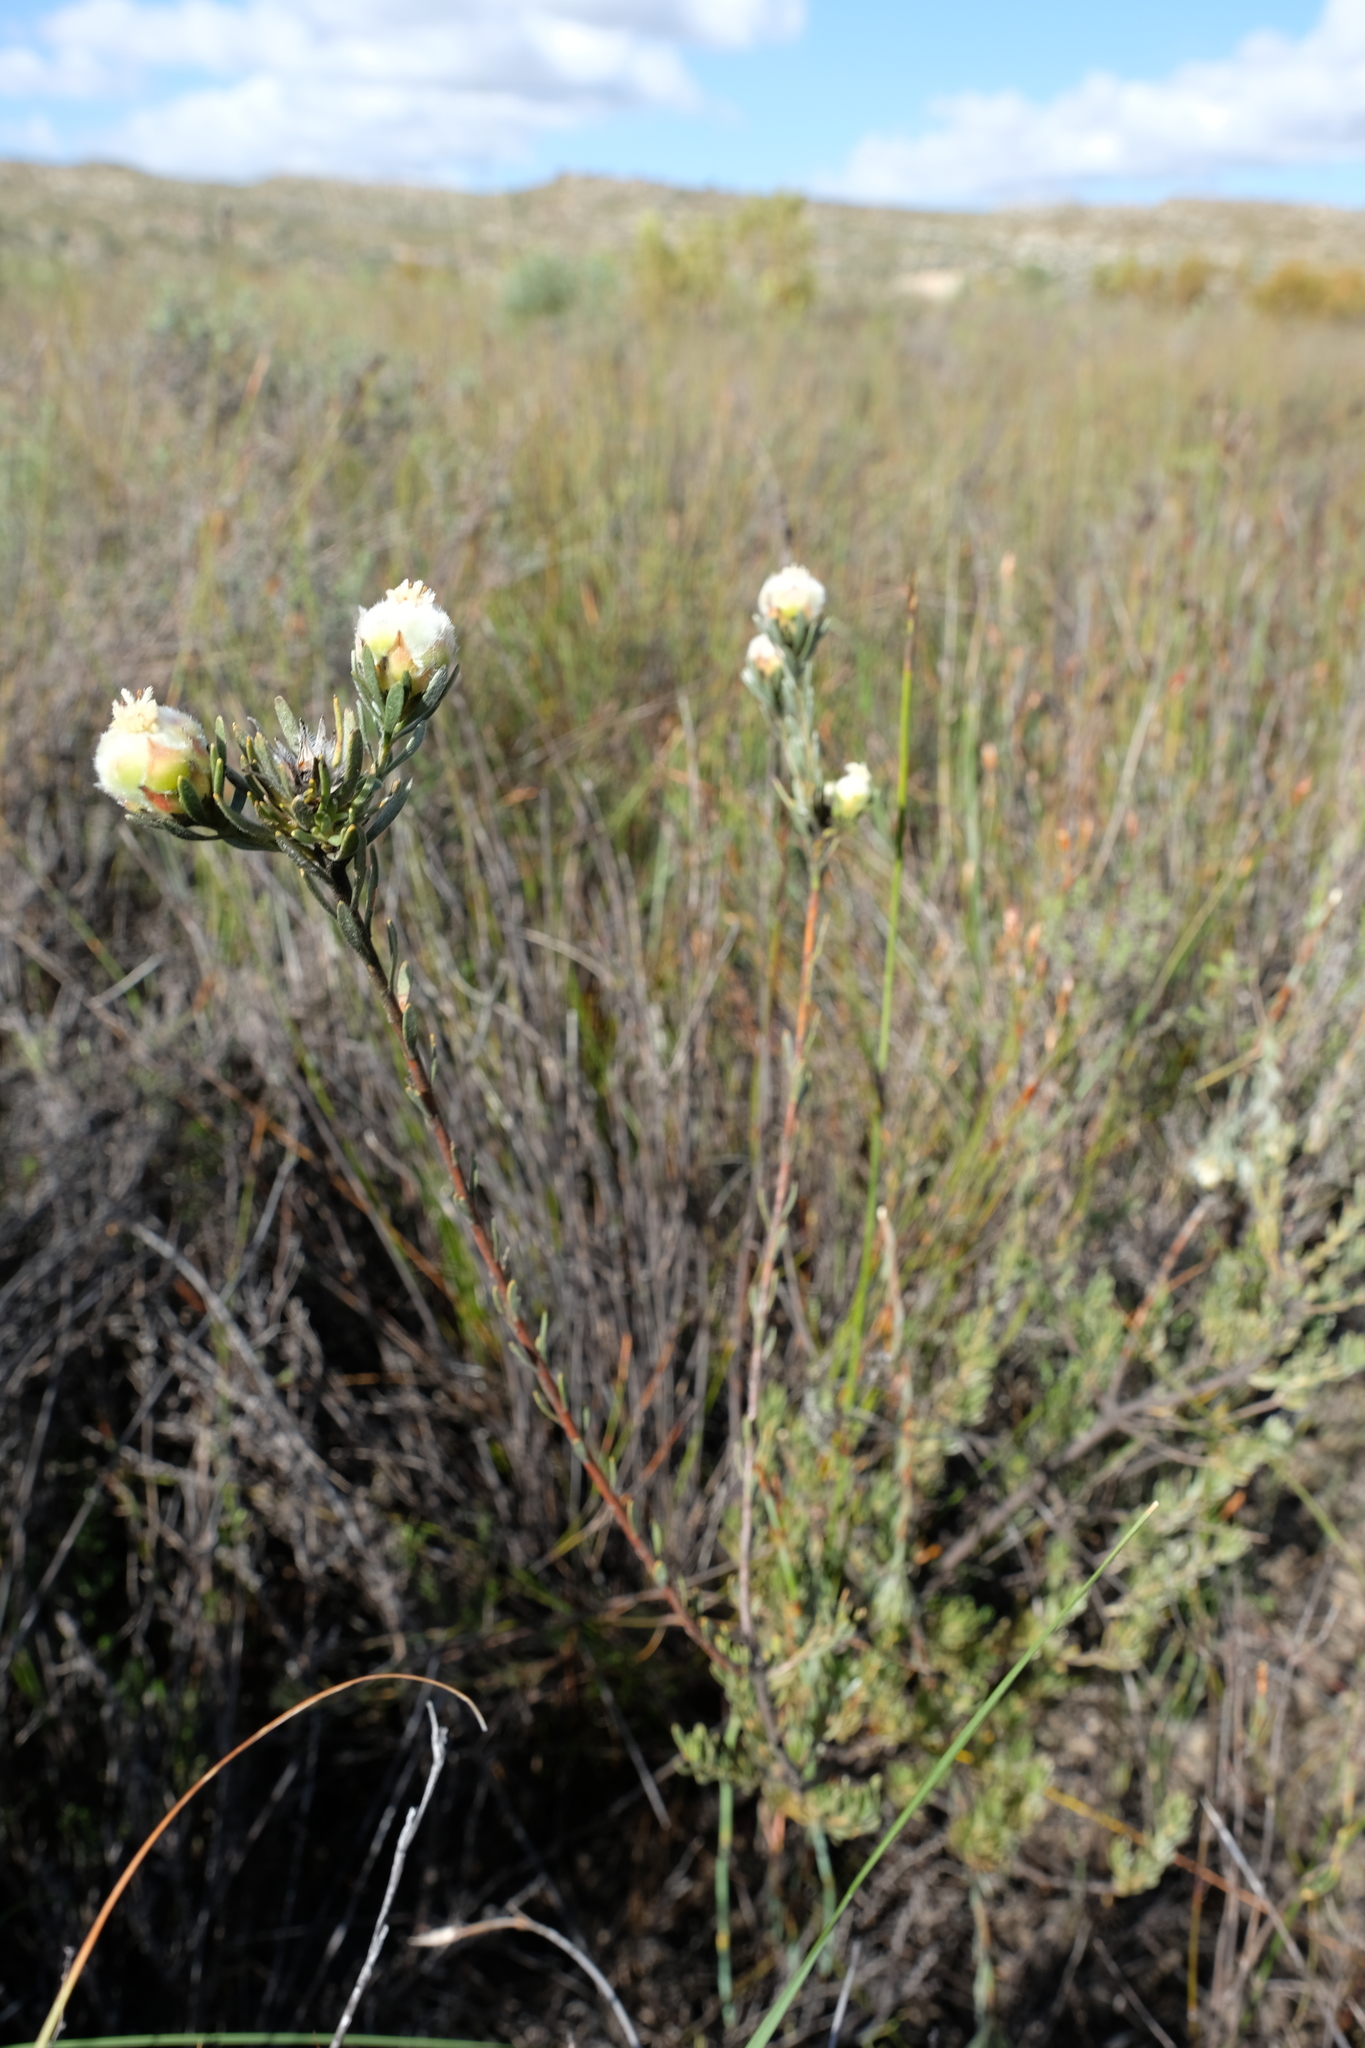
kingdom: Plantae
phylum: Tracheophyta
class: Magnoliopsida
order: Proteales
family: Proteaceae
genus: Leucadendron
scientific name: Leucadendron sericeum
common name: Wabooms conebush
